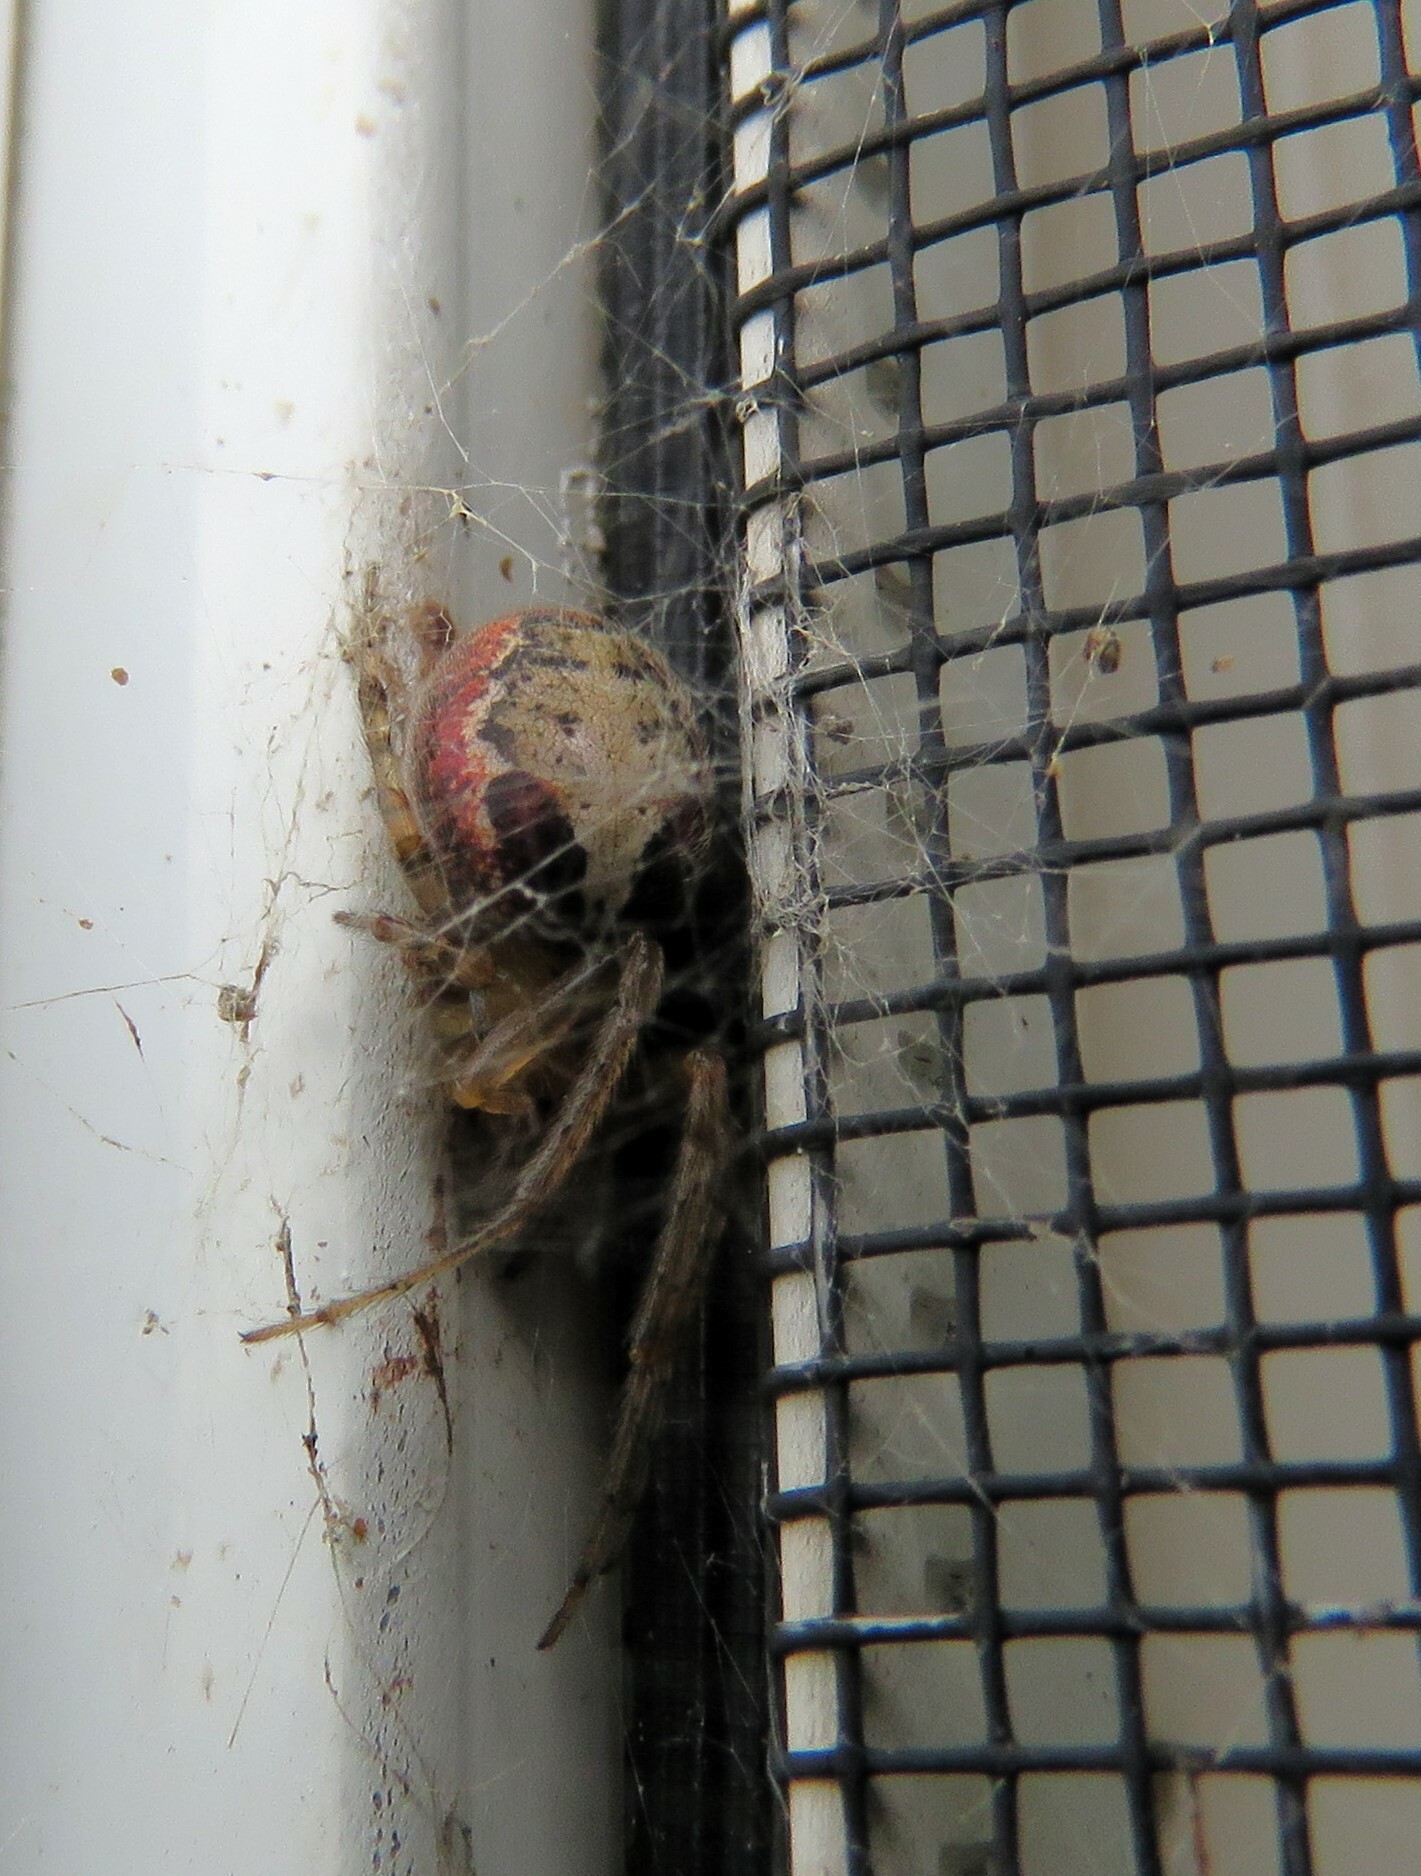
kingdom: Animalia
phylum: Arthropoda
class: Arachnida
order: Araneae
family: Araneidae
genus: Zygiella
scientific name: Zygiella atrica
